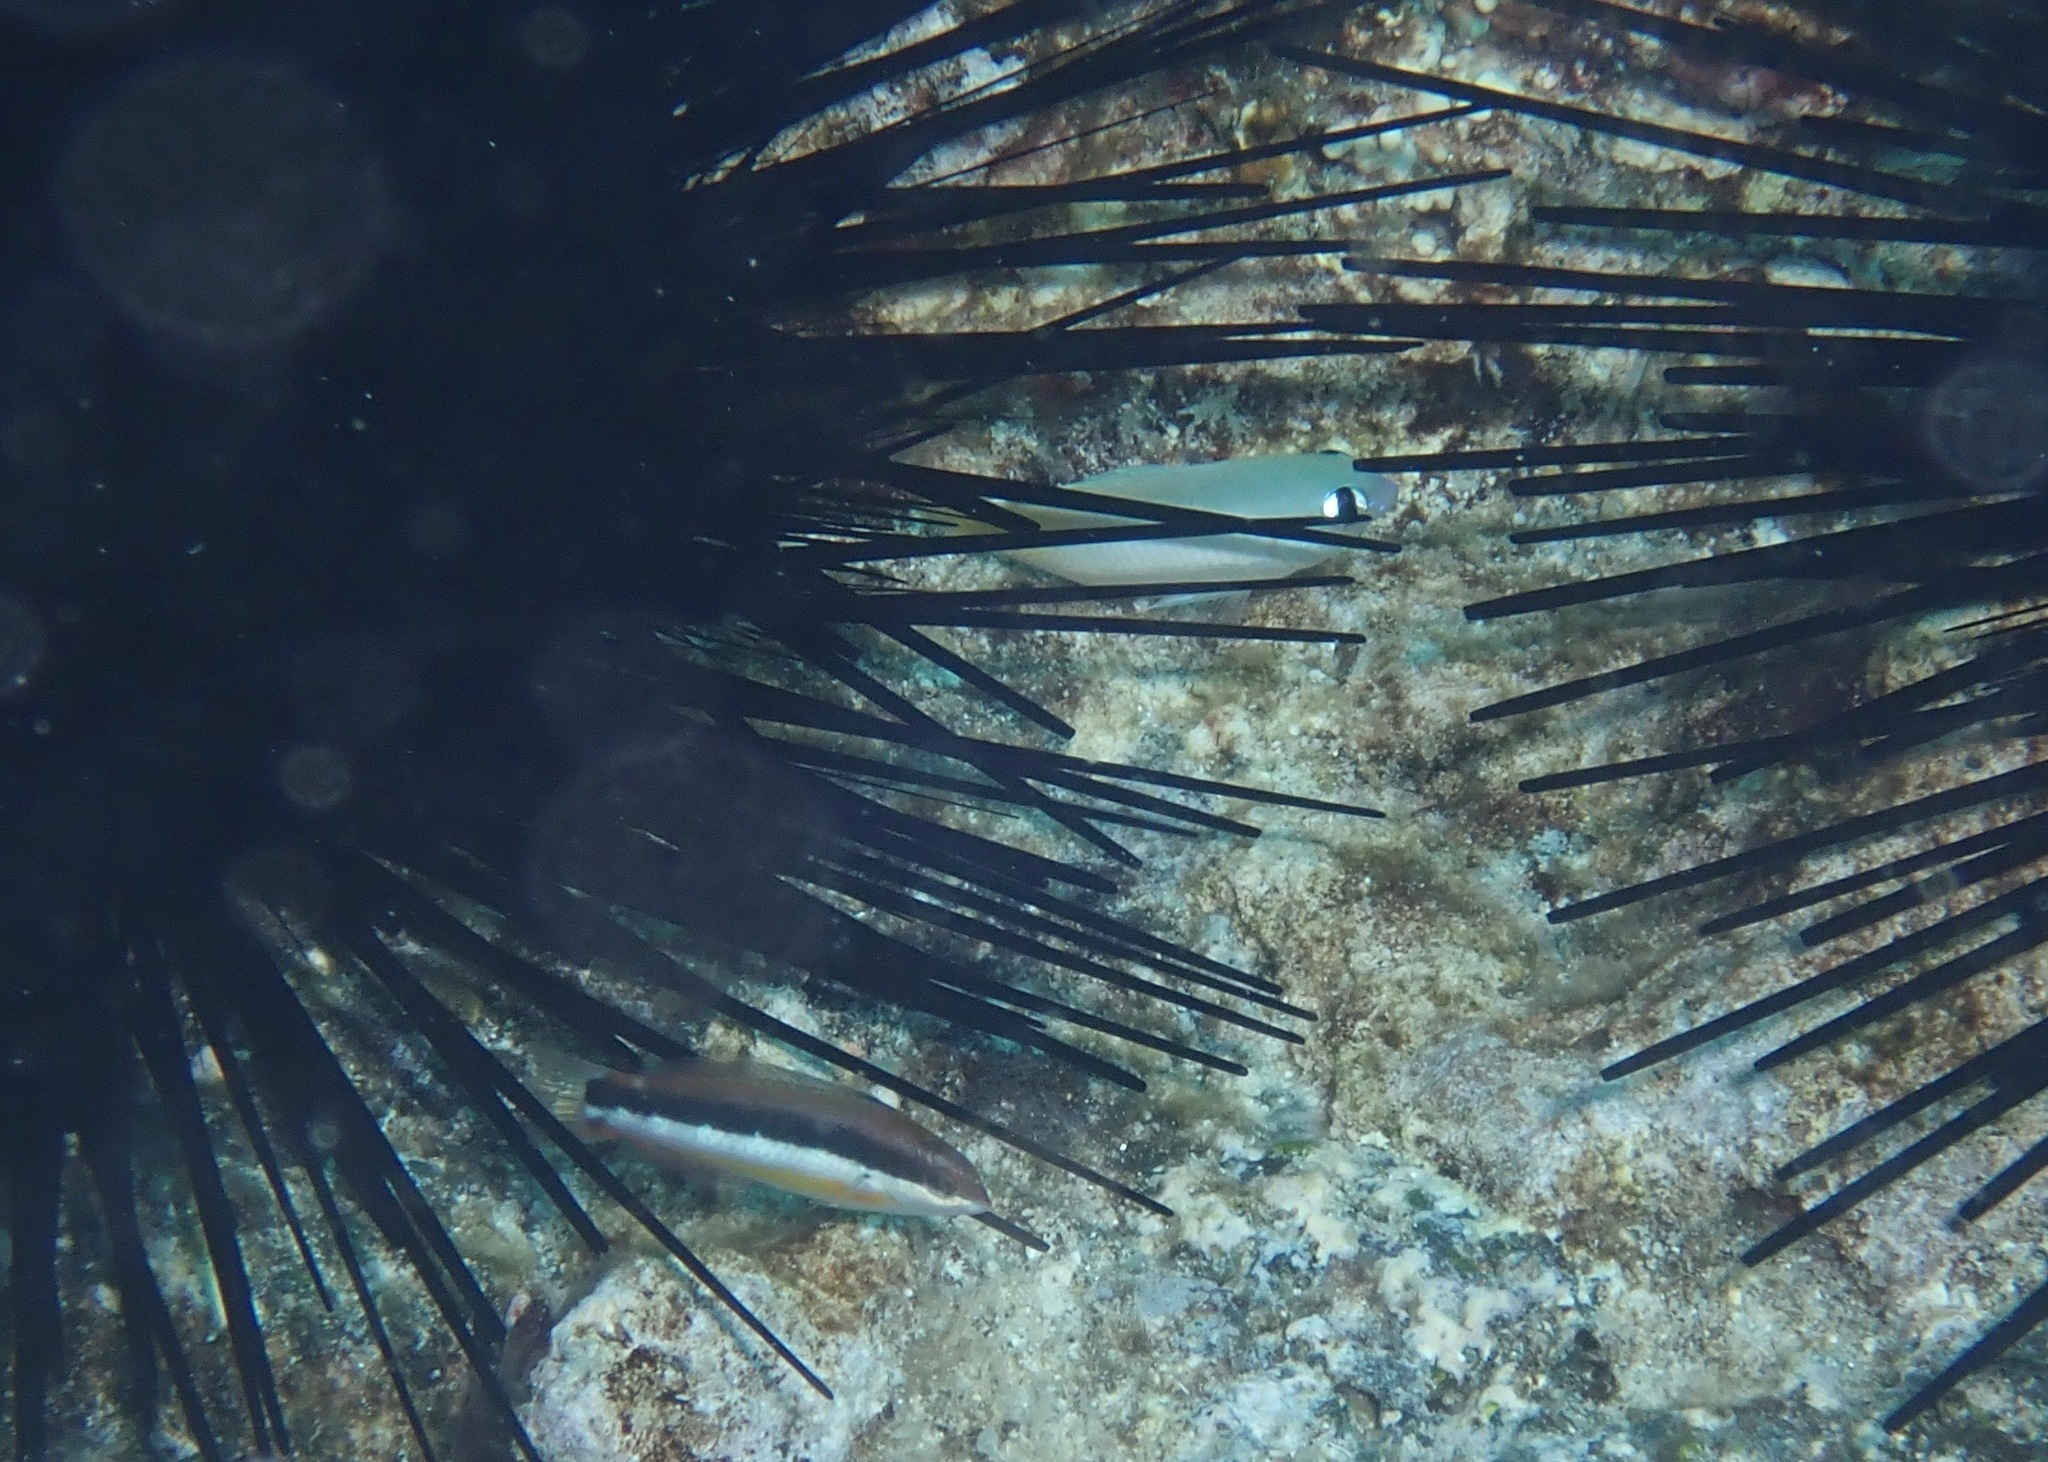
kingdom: Animalia
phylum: Chordata
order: Perciformes
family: Pomacentridae
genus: Plectroglyphidodon
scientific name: Plectroglyphidodon imparipennis
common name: Brighteye damsel
